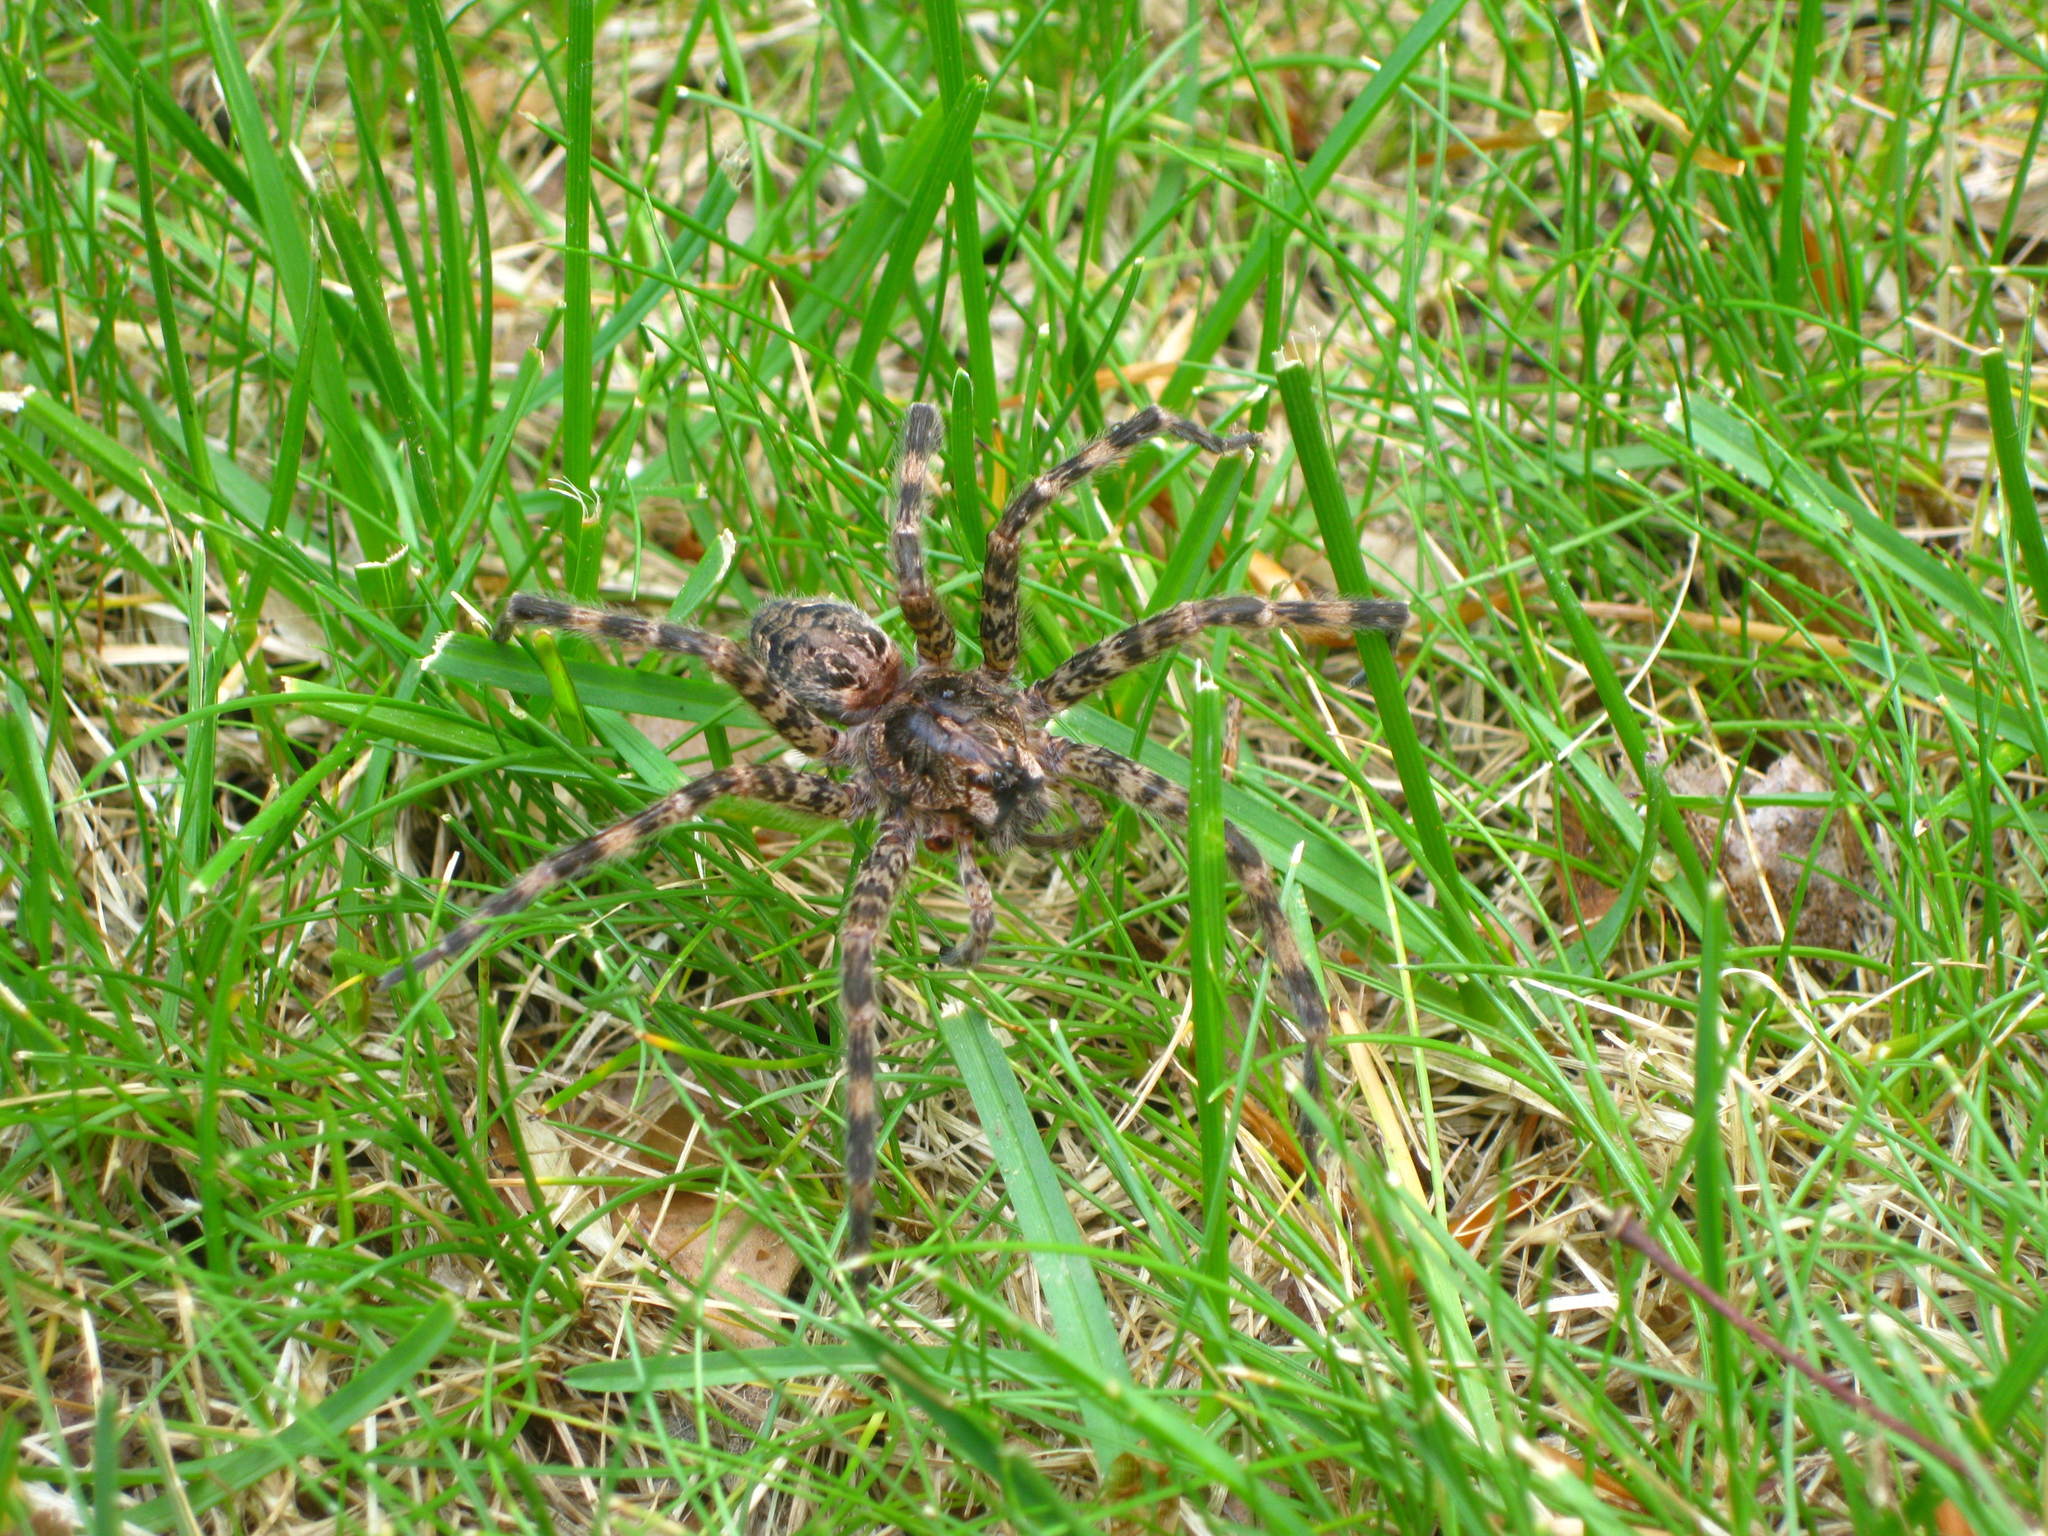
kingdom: Animalia
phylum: Arthropoda
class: Arachnida
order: Araneae
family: Pisauridae
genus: Dolomedes
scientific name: Dolomedes tenebrosus
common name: Dark fishing spider
